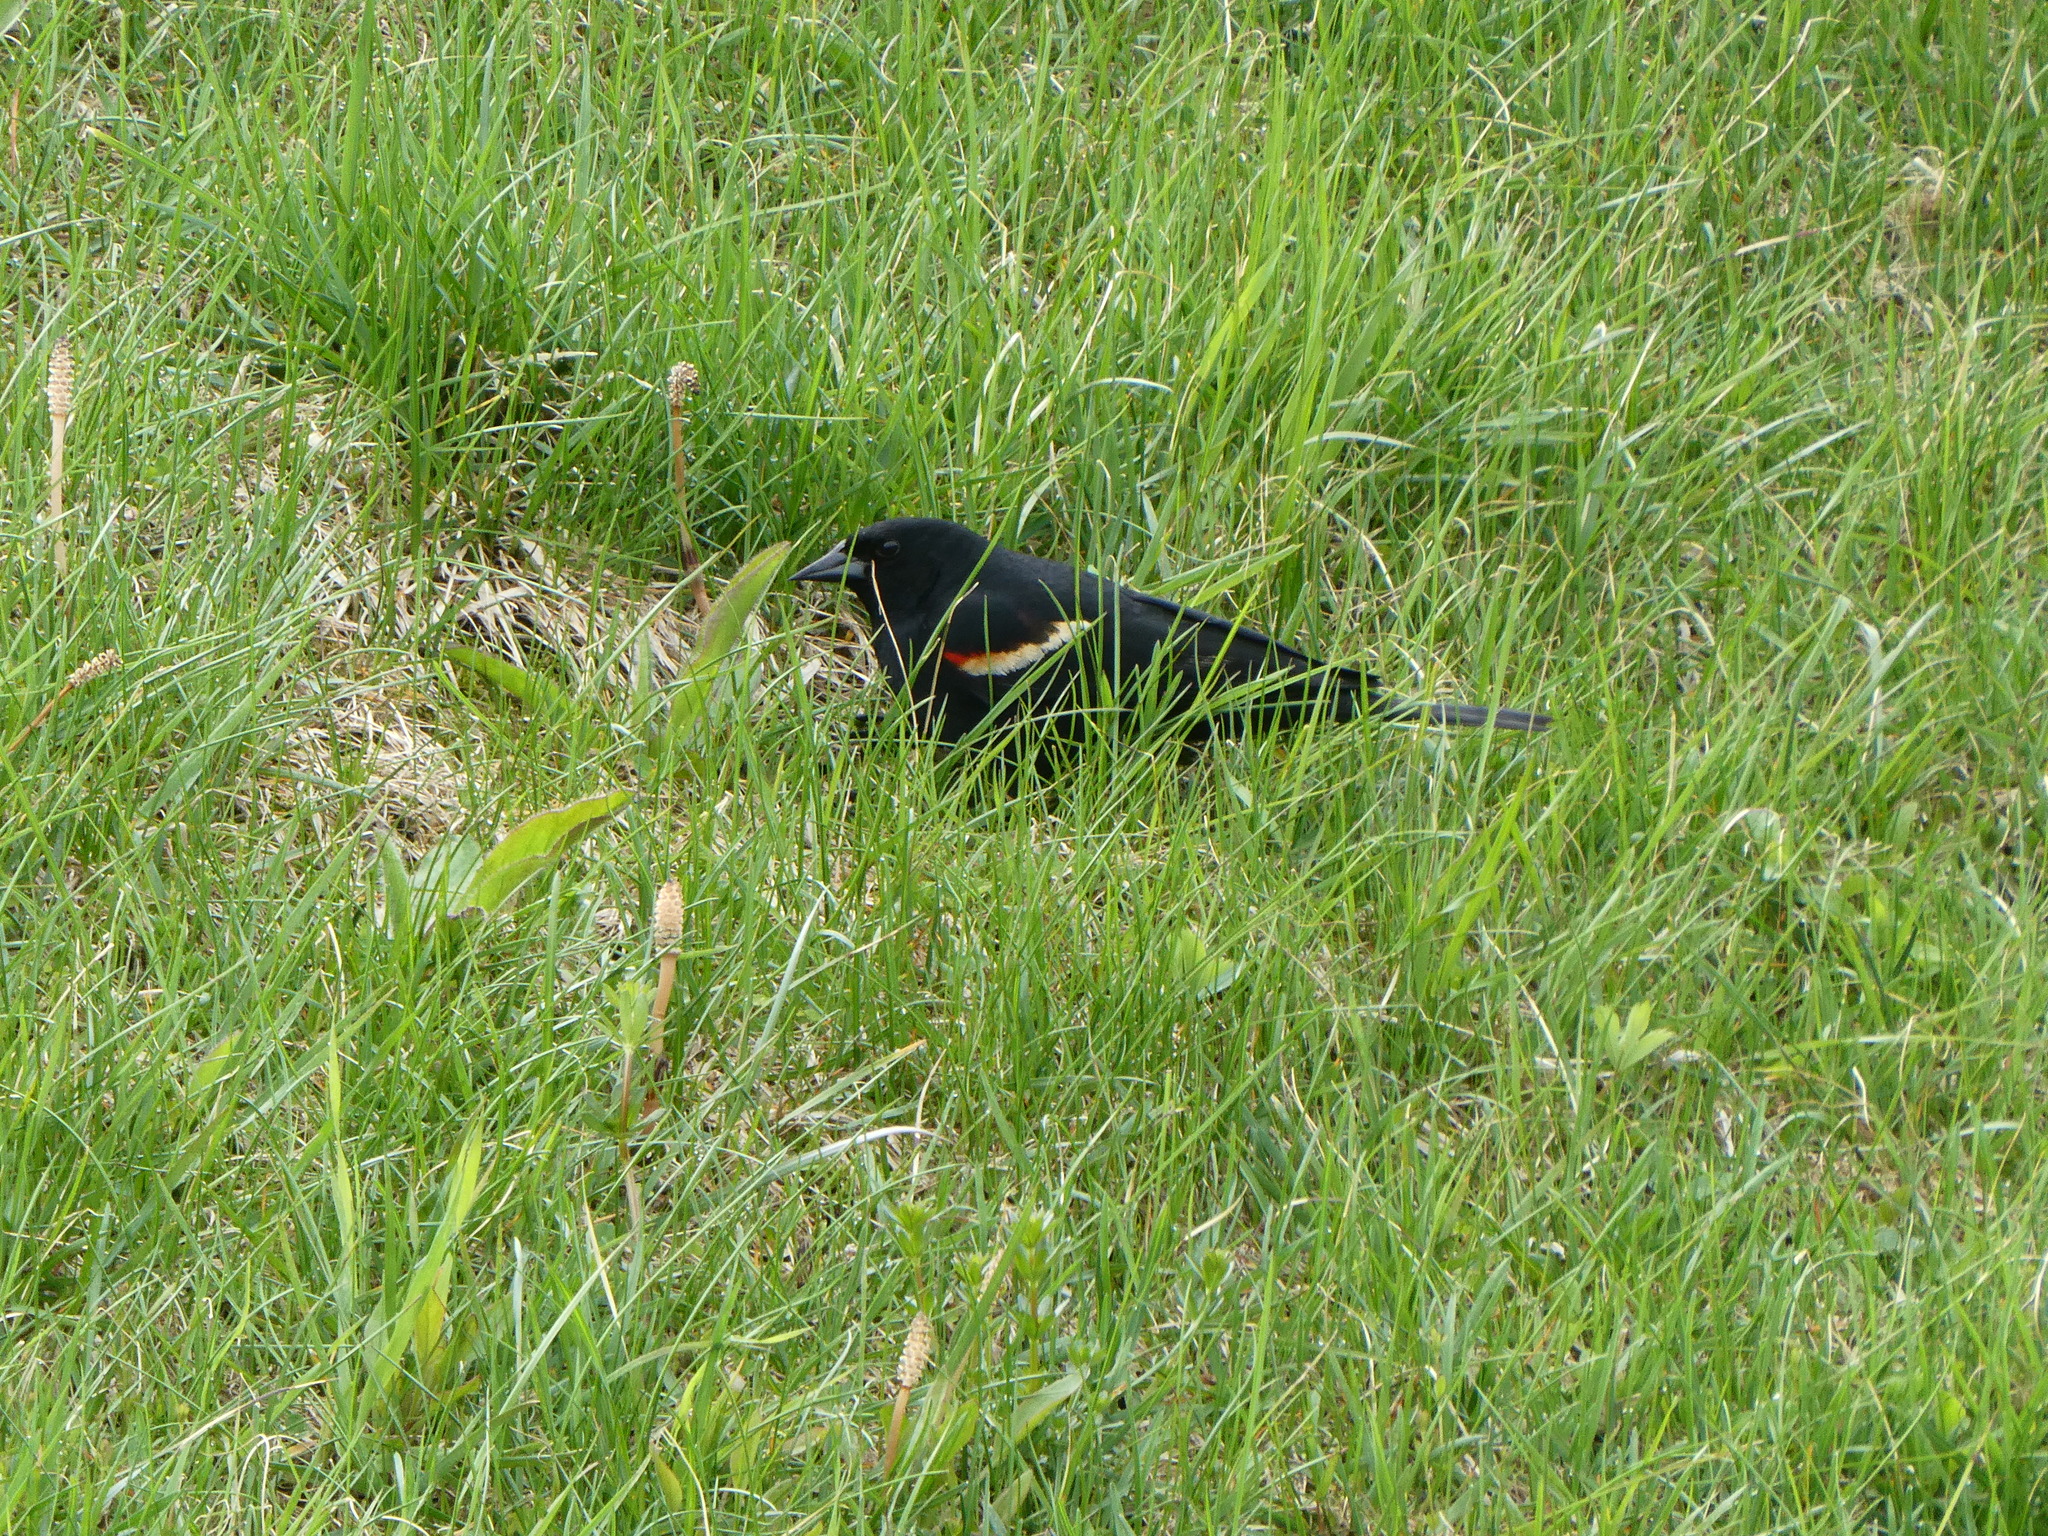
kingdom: Animalia
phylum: Chordata
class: Aves
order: Passeriformes
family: Icteridae
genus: Agelaius
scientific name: Agelaius phoeniceus
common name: Red-winged blackbird
